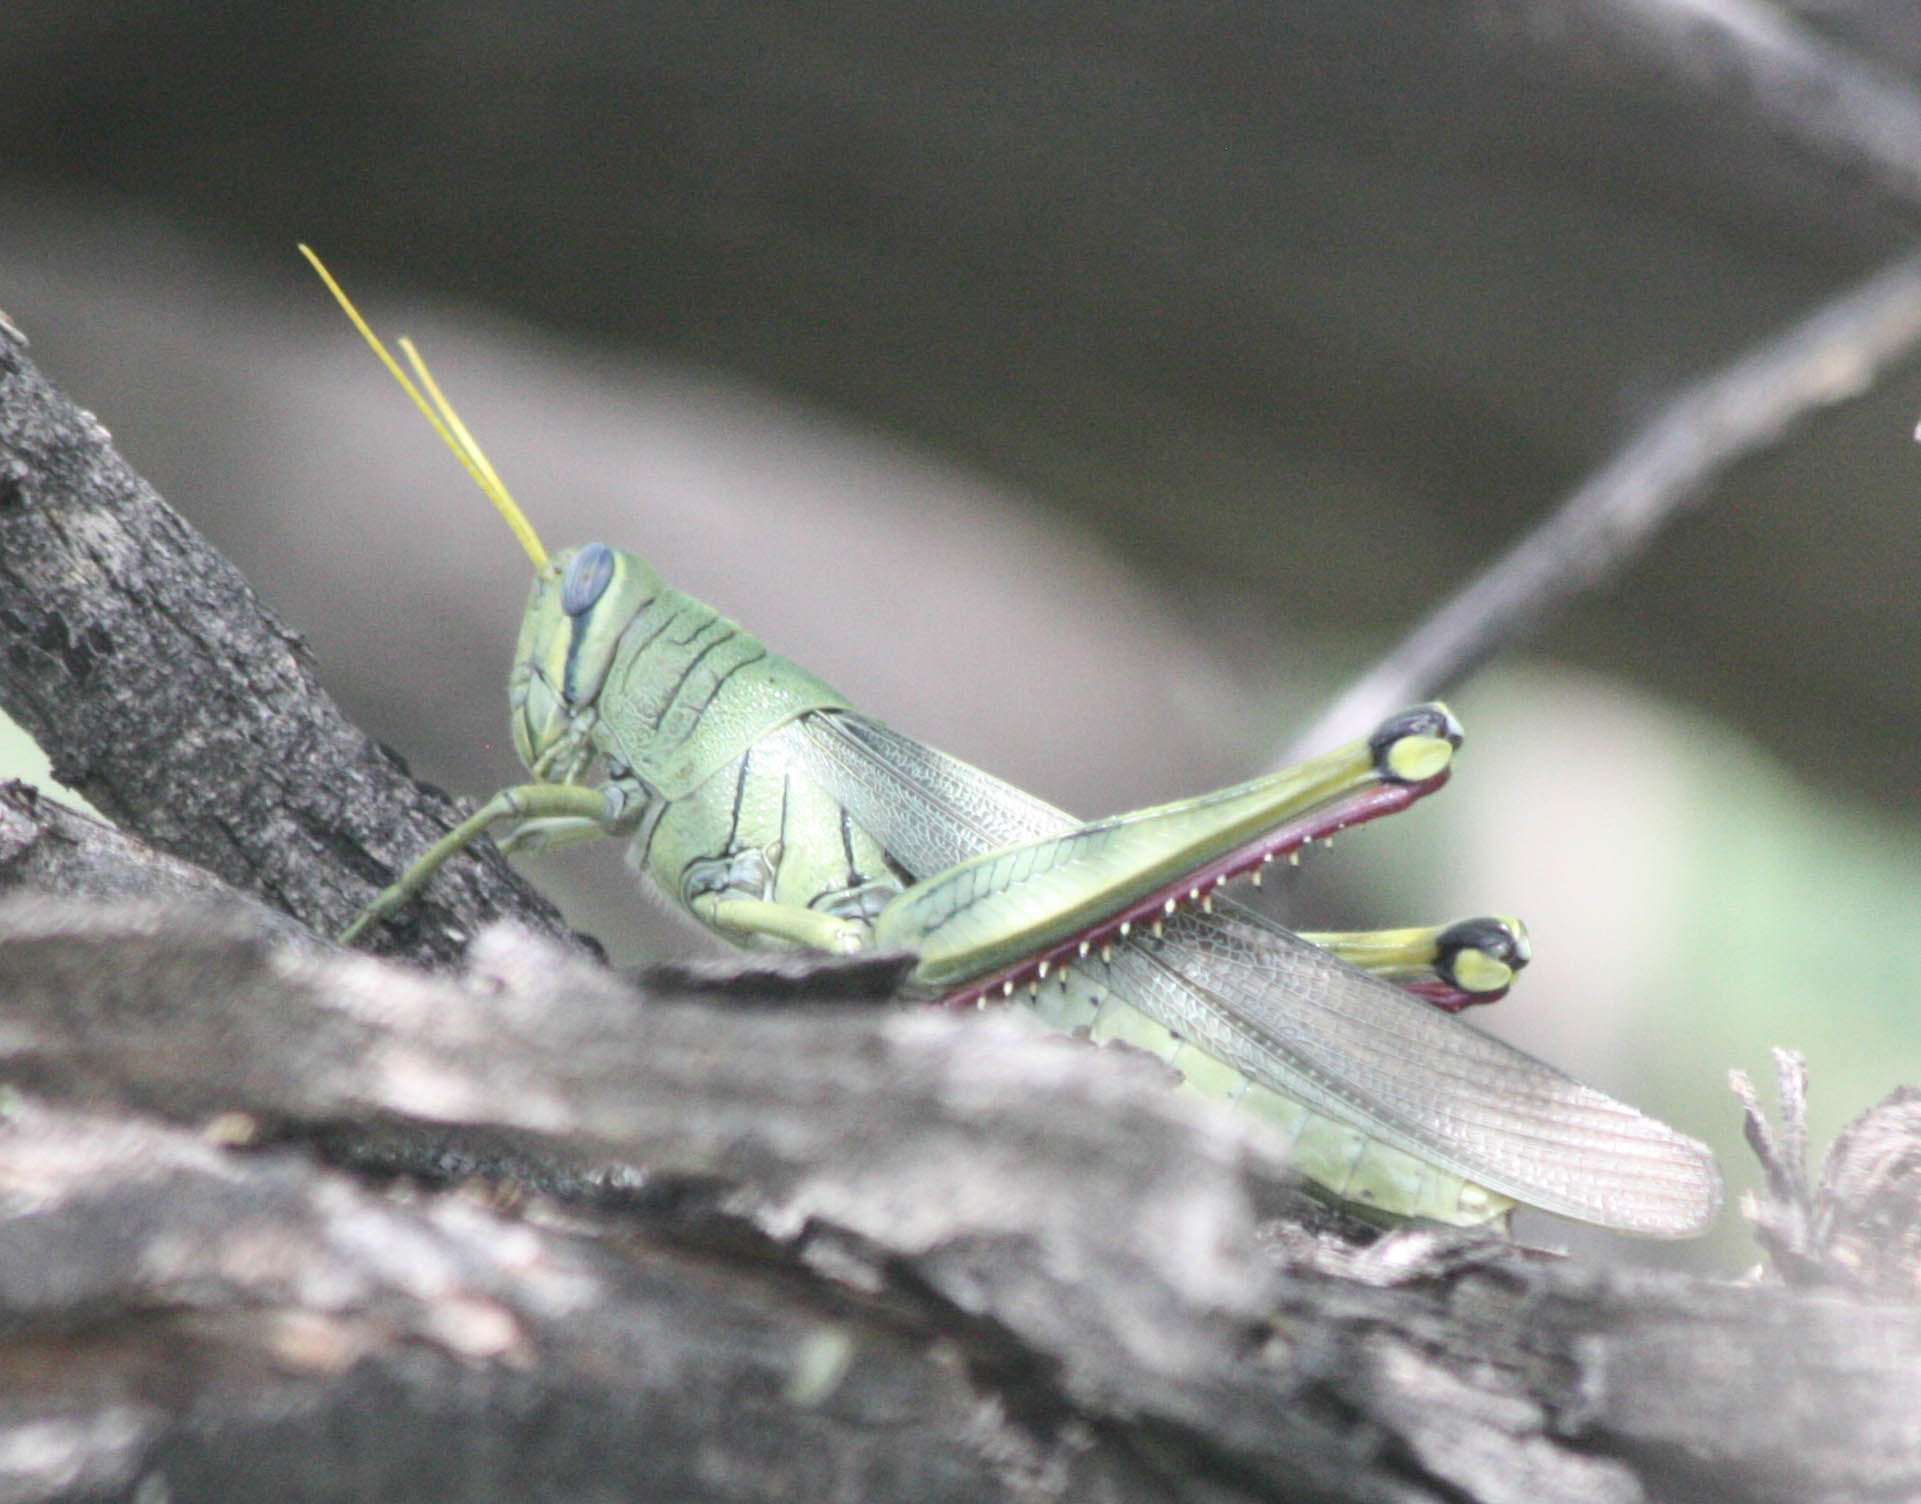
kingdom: Animalia
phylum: Arthropoda
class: Insecta
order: Orthoptera
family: Acrididae
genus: Schistocerca
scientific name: Schistocerca shoshone
